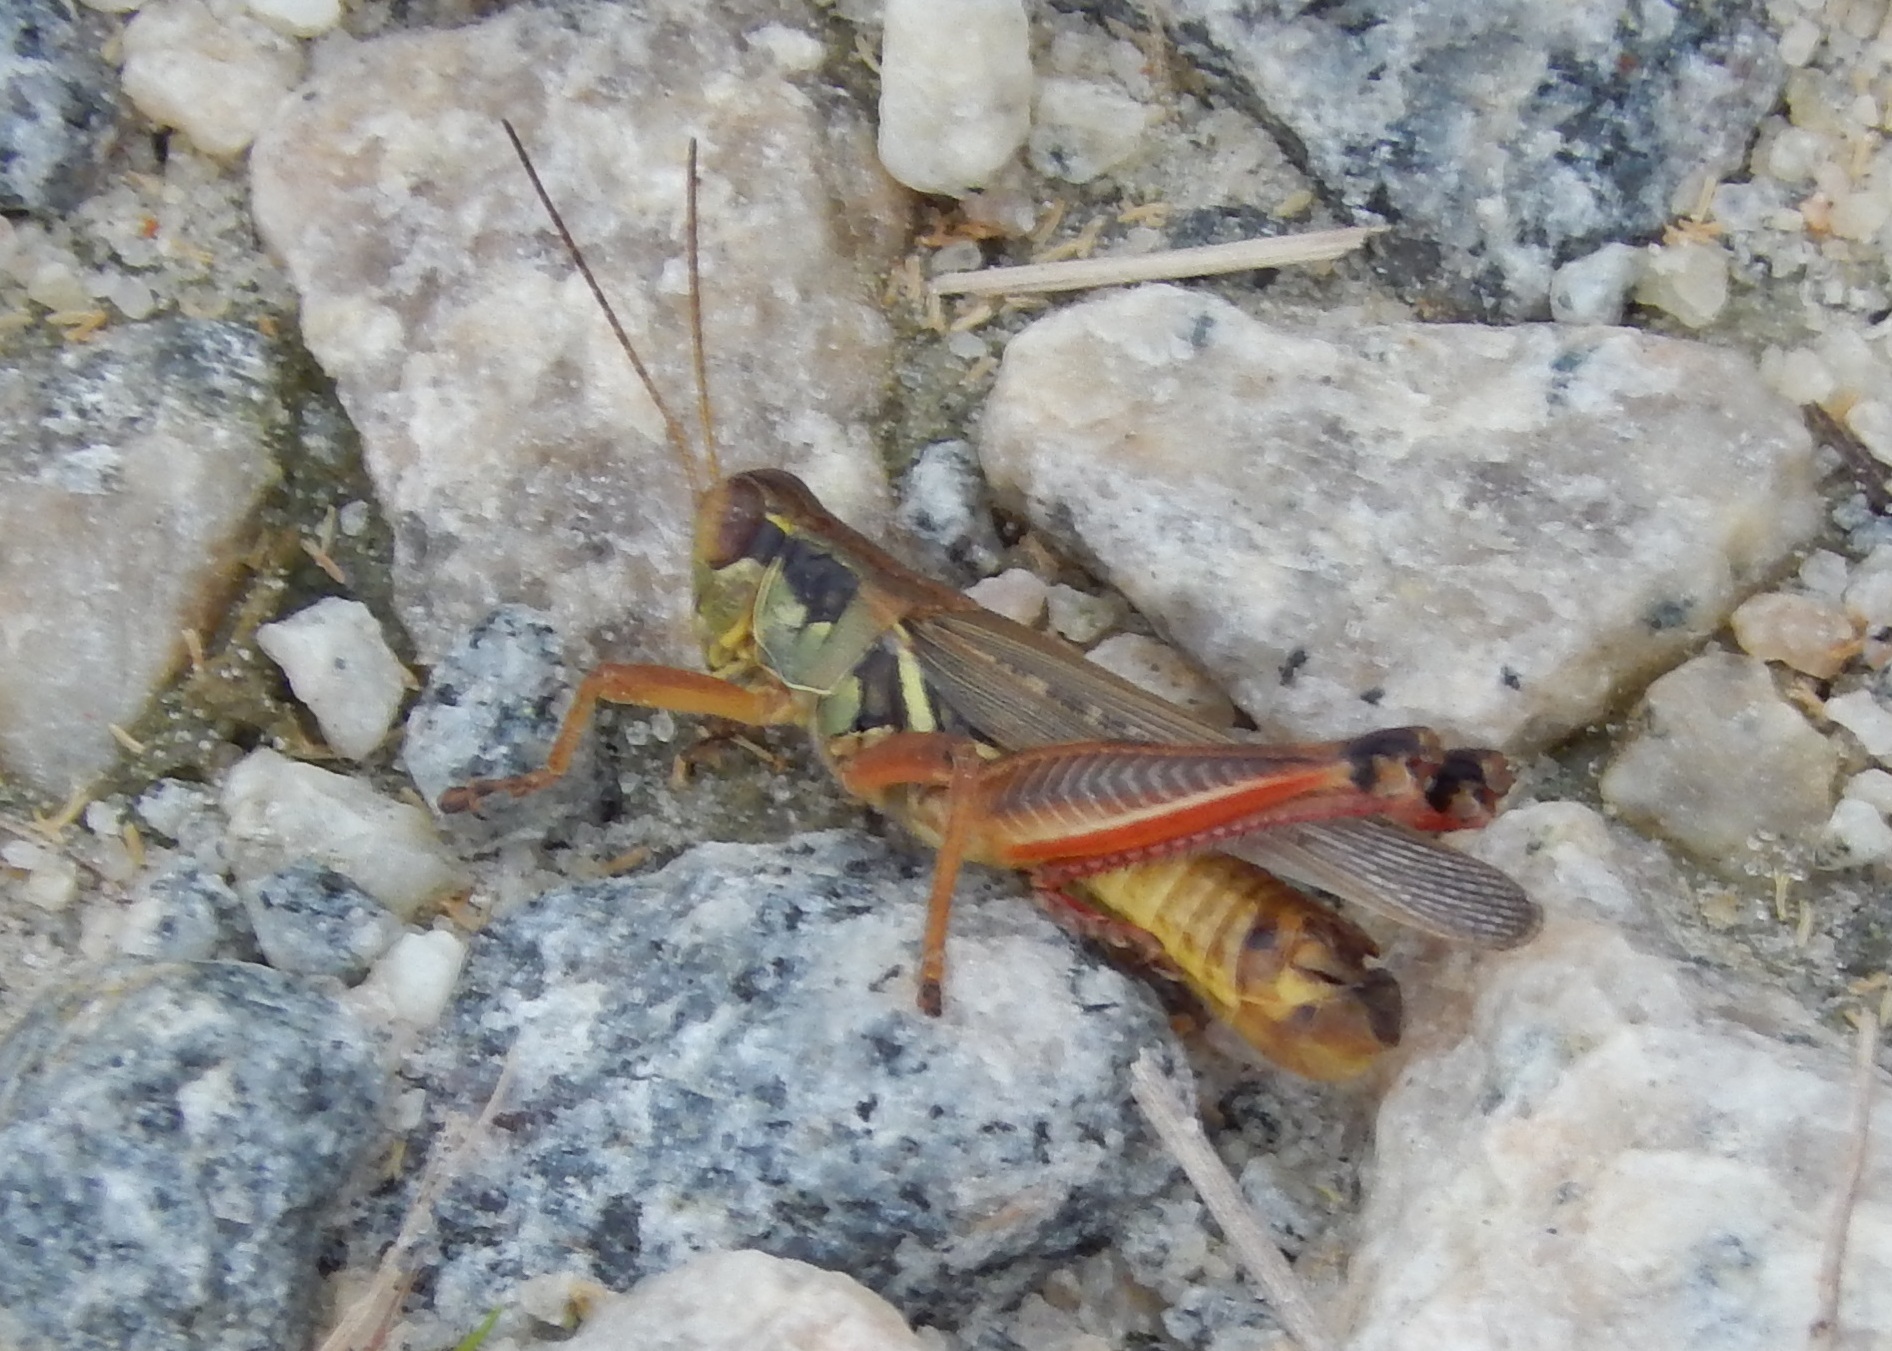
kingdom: Animalia
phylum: Arthropoda
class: Insecta
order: Orthoptera
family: Acrididae
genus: Melanoplus
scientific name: Melanoplus femurrubrum
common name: Red-legged grasshopper
